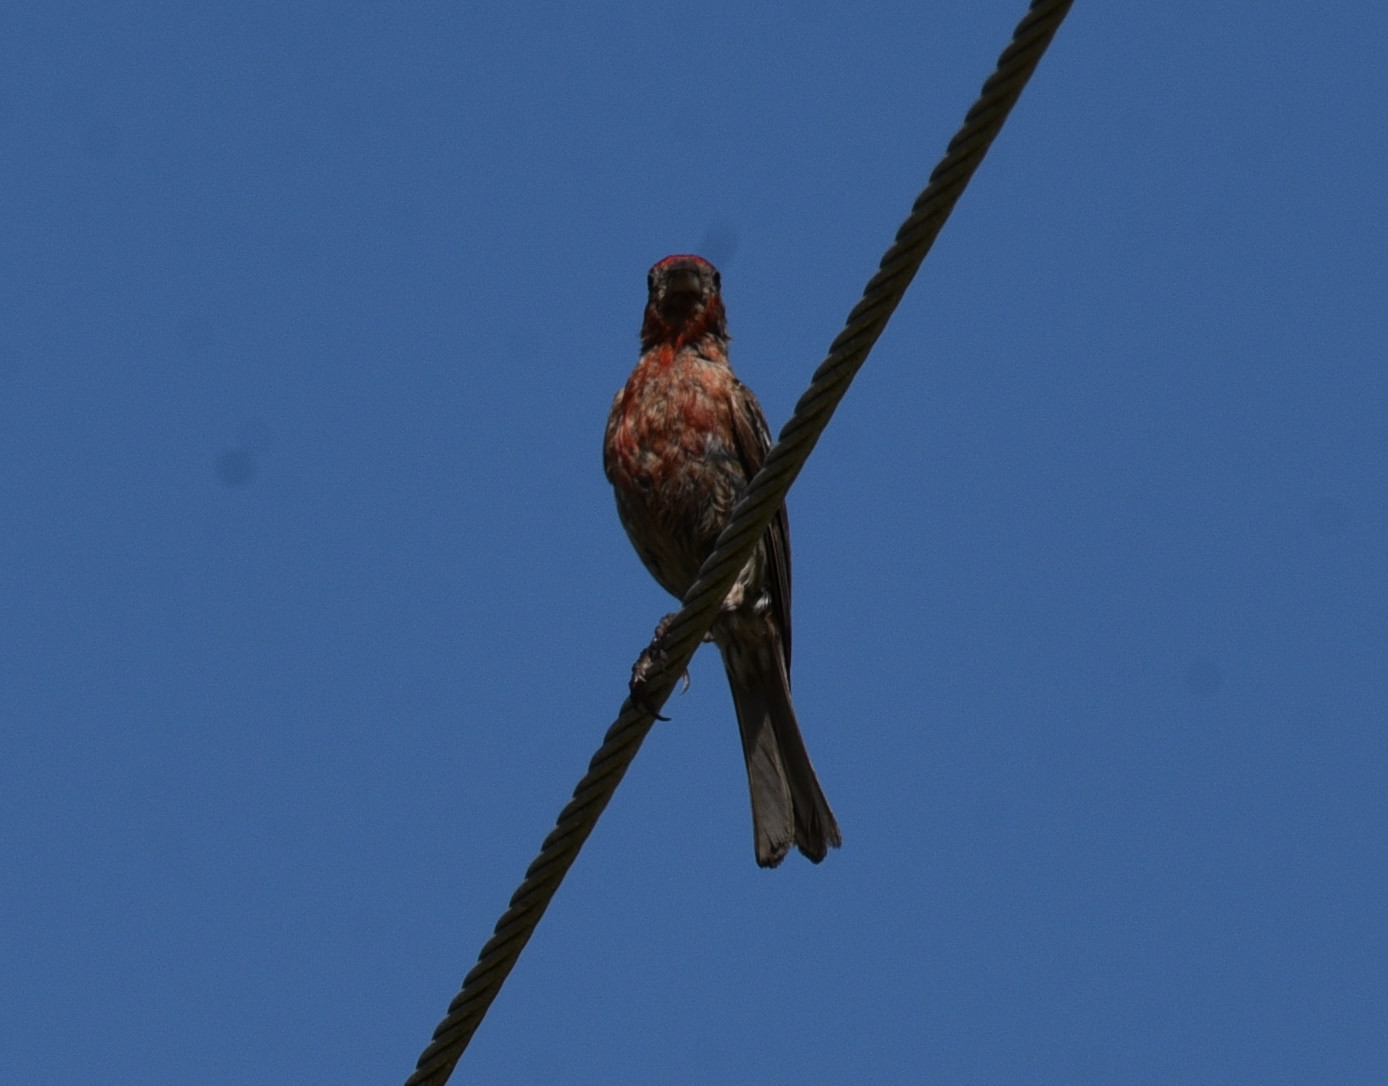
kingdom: Animalia
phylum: Chordata
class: Aves
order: Passeriformes
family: Fringillidae
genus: Haemorhous
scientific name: Haemorhous mexicanus
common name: House finch
